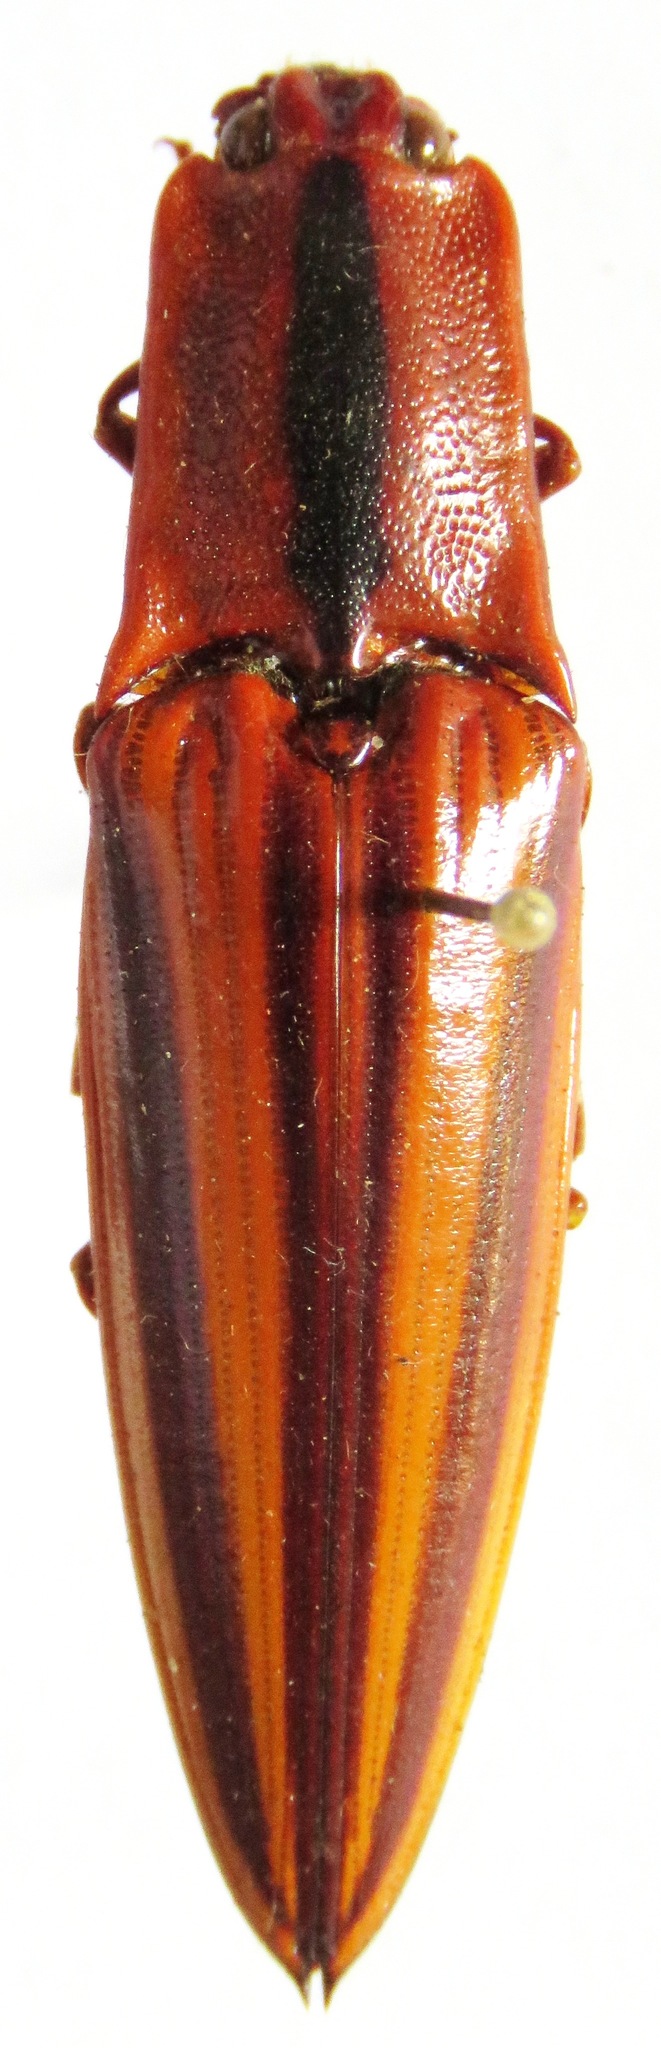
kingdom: Animalia
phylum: Arthropoda
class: Insecta
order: Coleoptera
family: Elateridae
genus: Semiotus
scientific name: Semiotus
